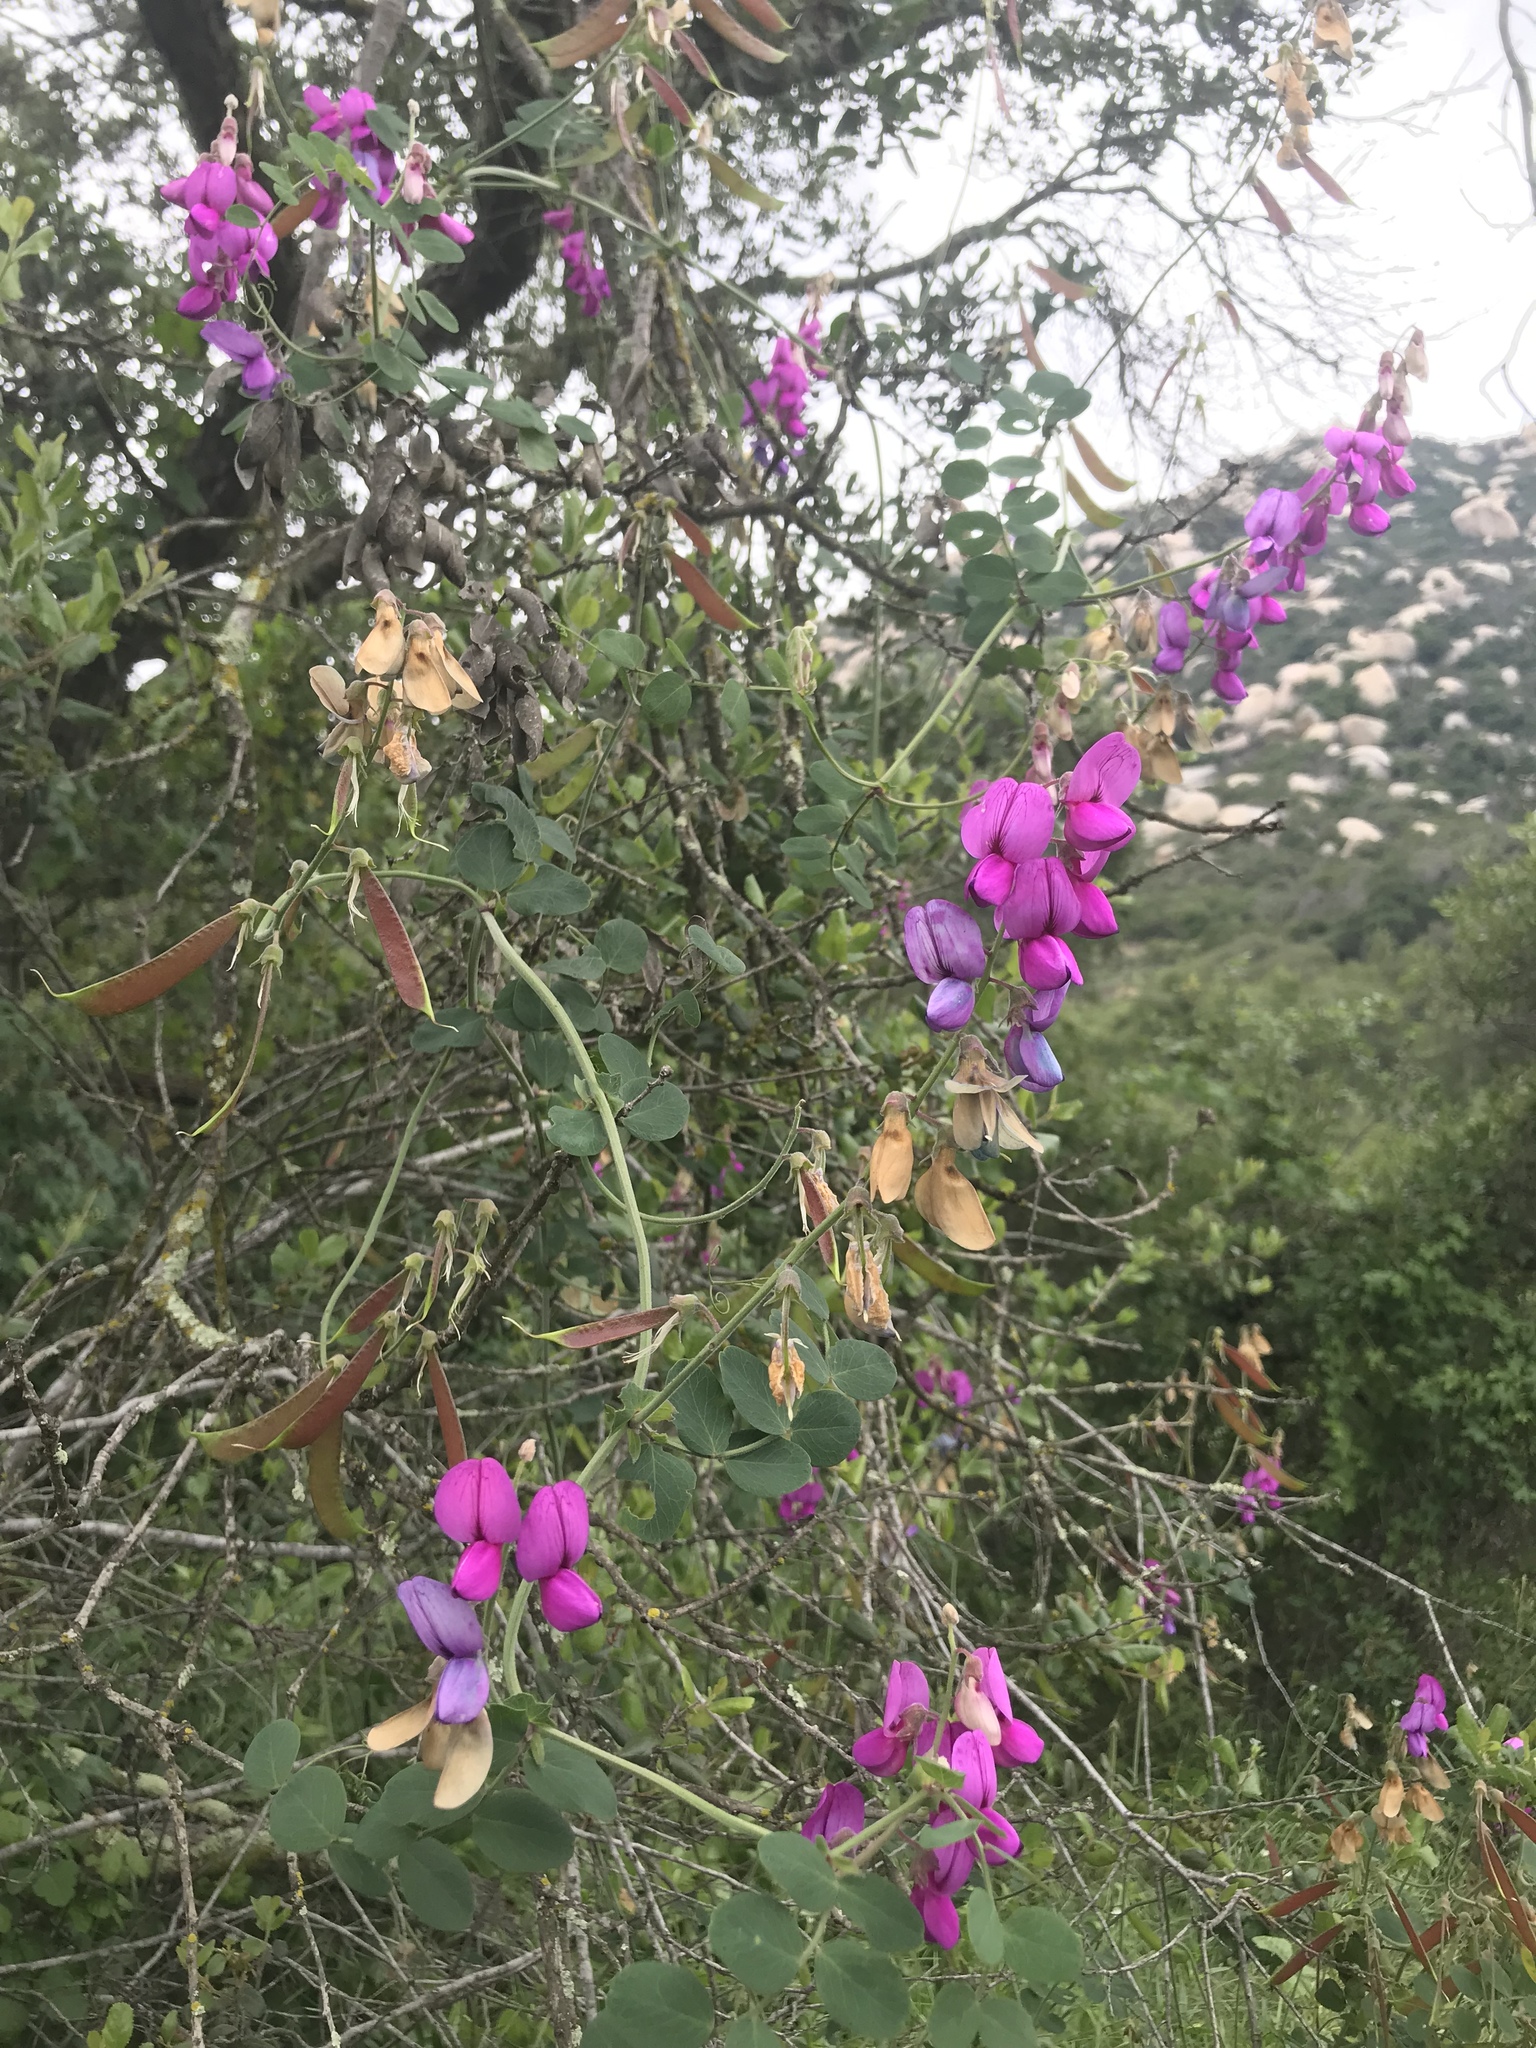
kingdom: Plantae
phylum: Tracheophyta
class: Magnoliopsida
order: Fabales
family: Fabaceae
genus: Lathyrus
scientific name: Lathyrus vestitus
